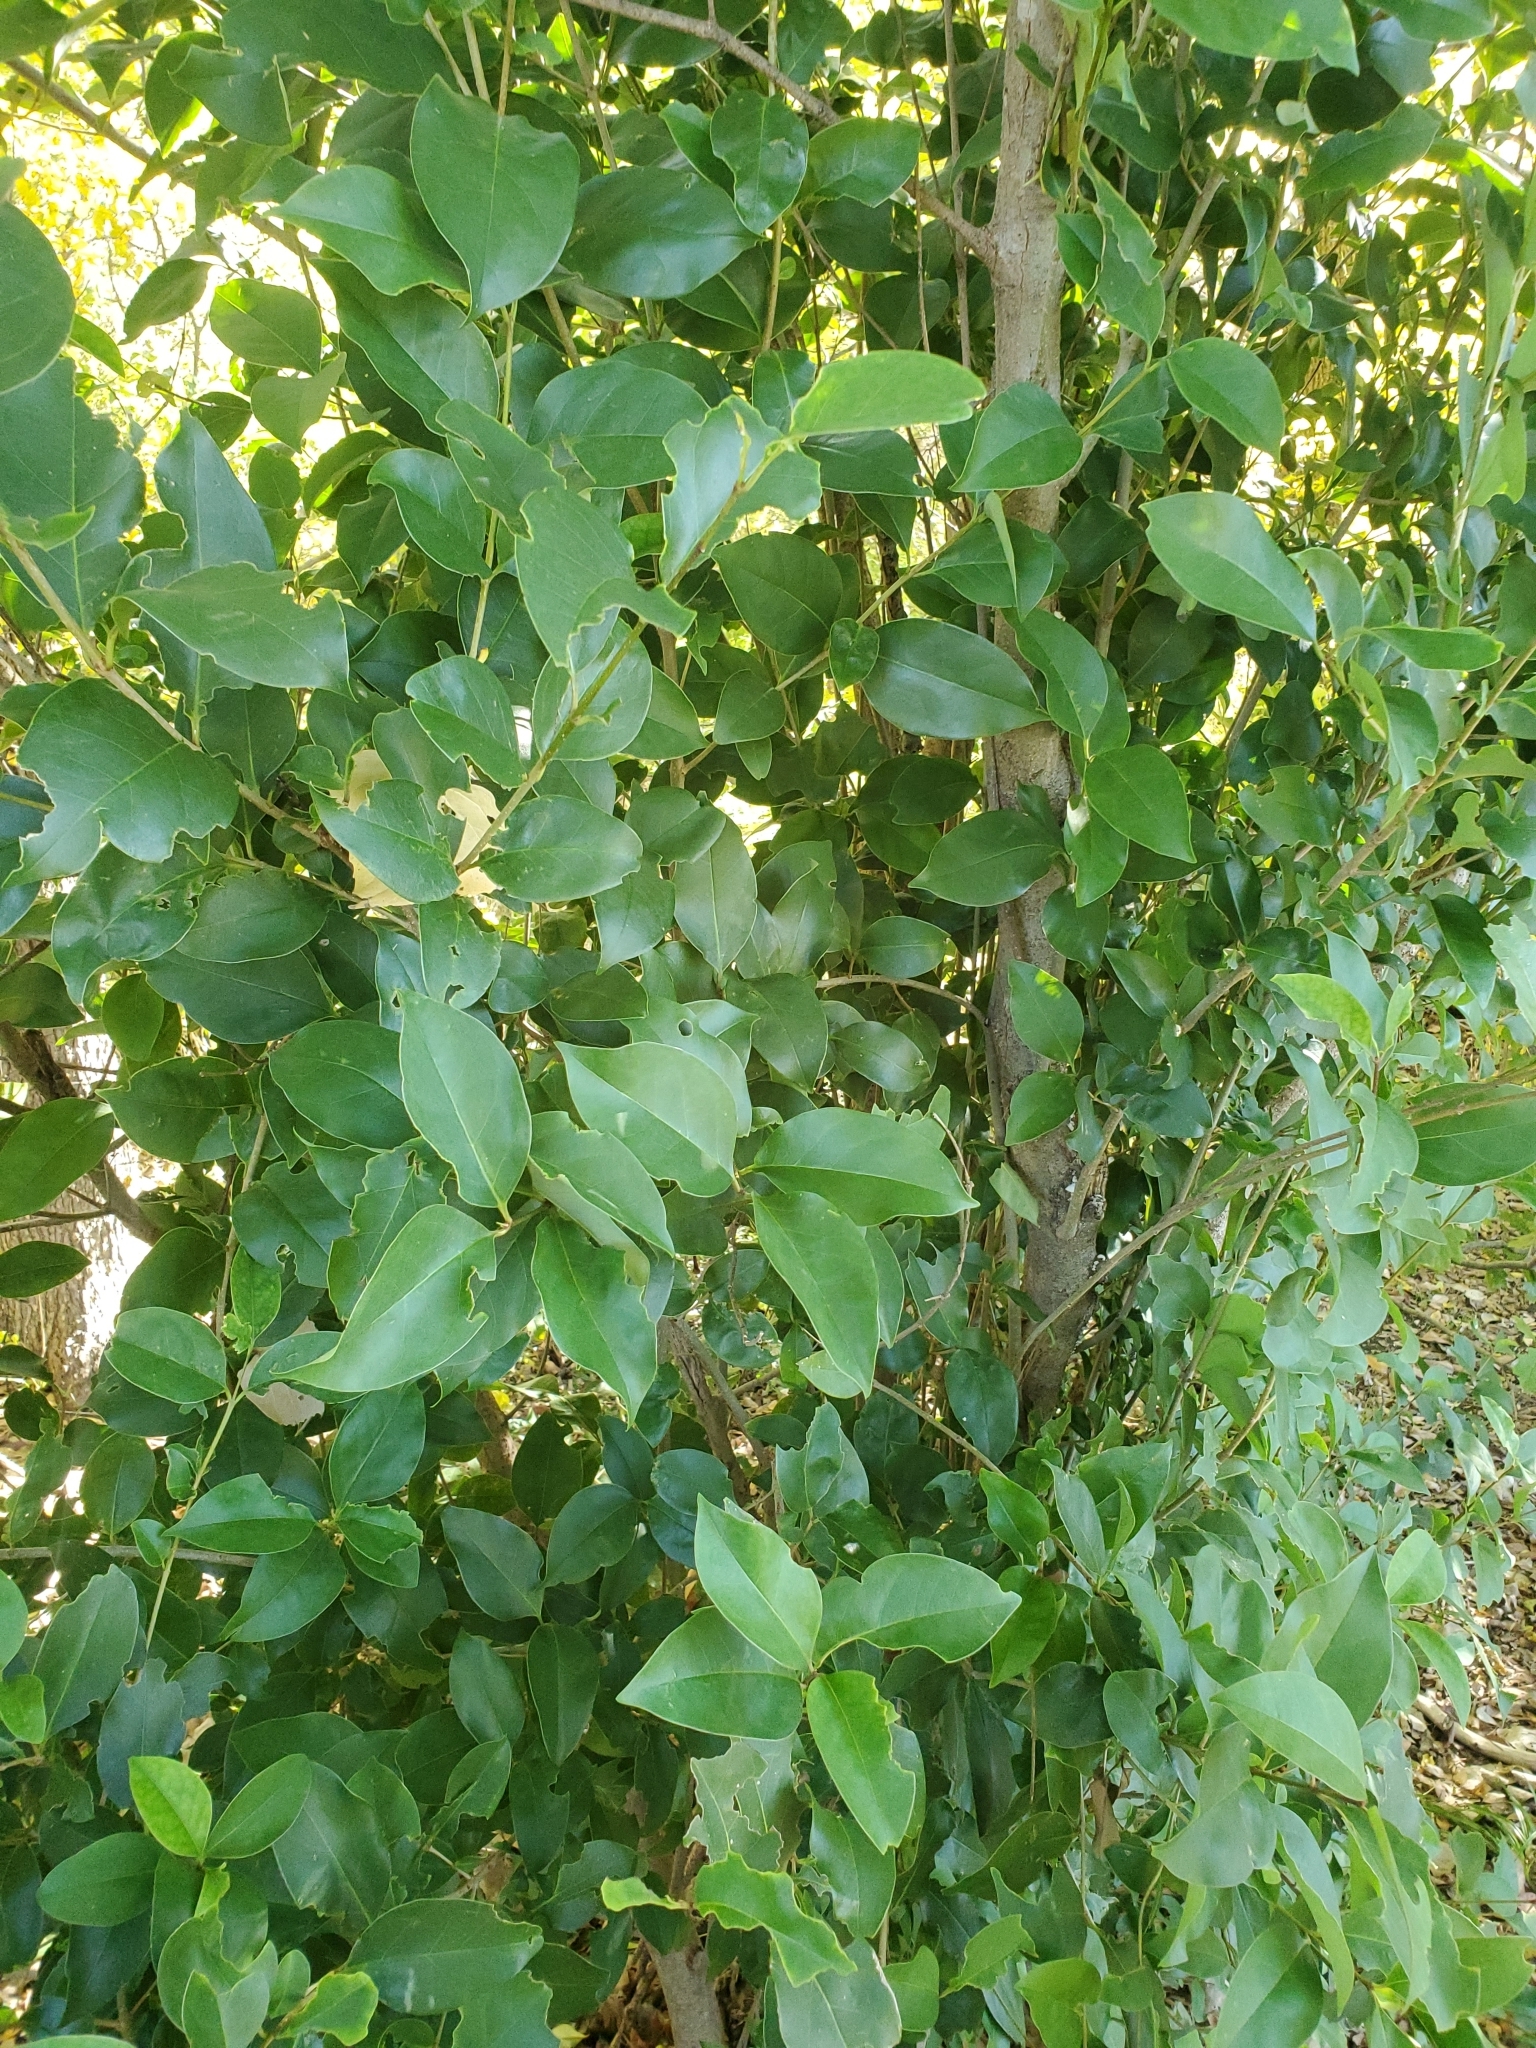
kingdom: Plantae
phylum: Tracheophyta
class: Magnoliopsida
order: Lamiales
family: Oleaceae
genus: Ligustrum
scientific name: Ligustrum lucidum
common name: Glossy privet
